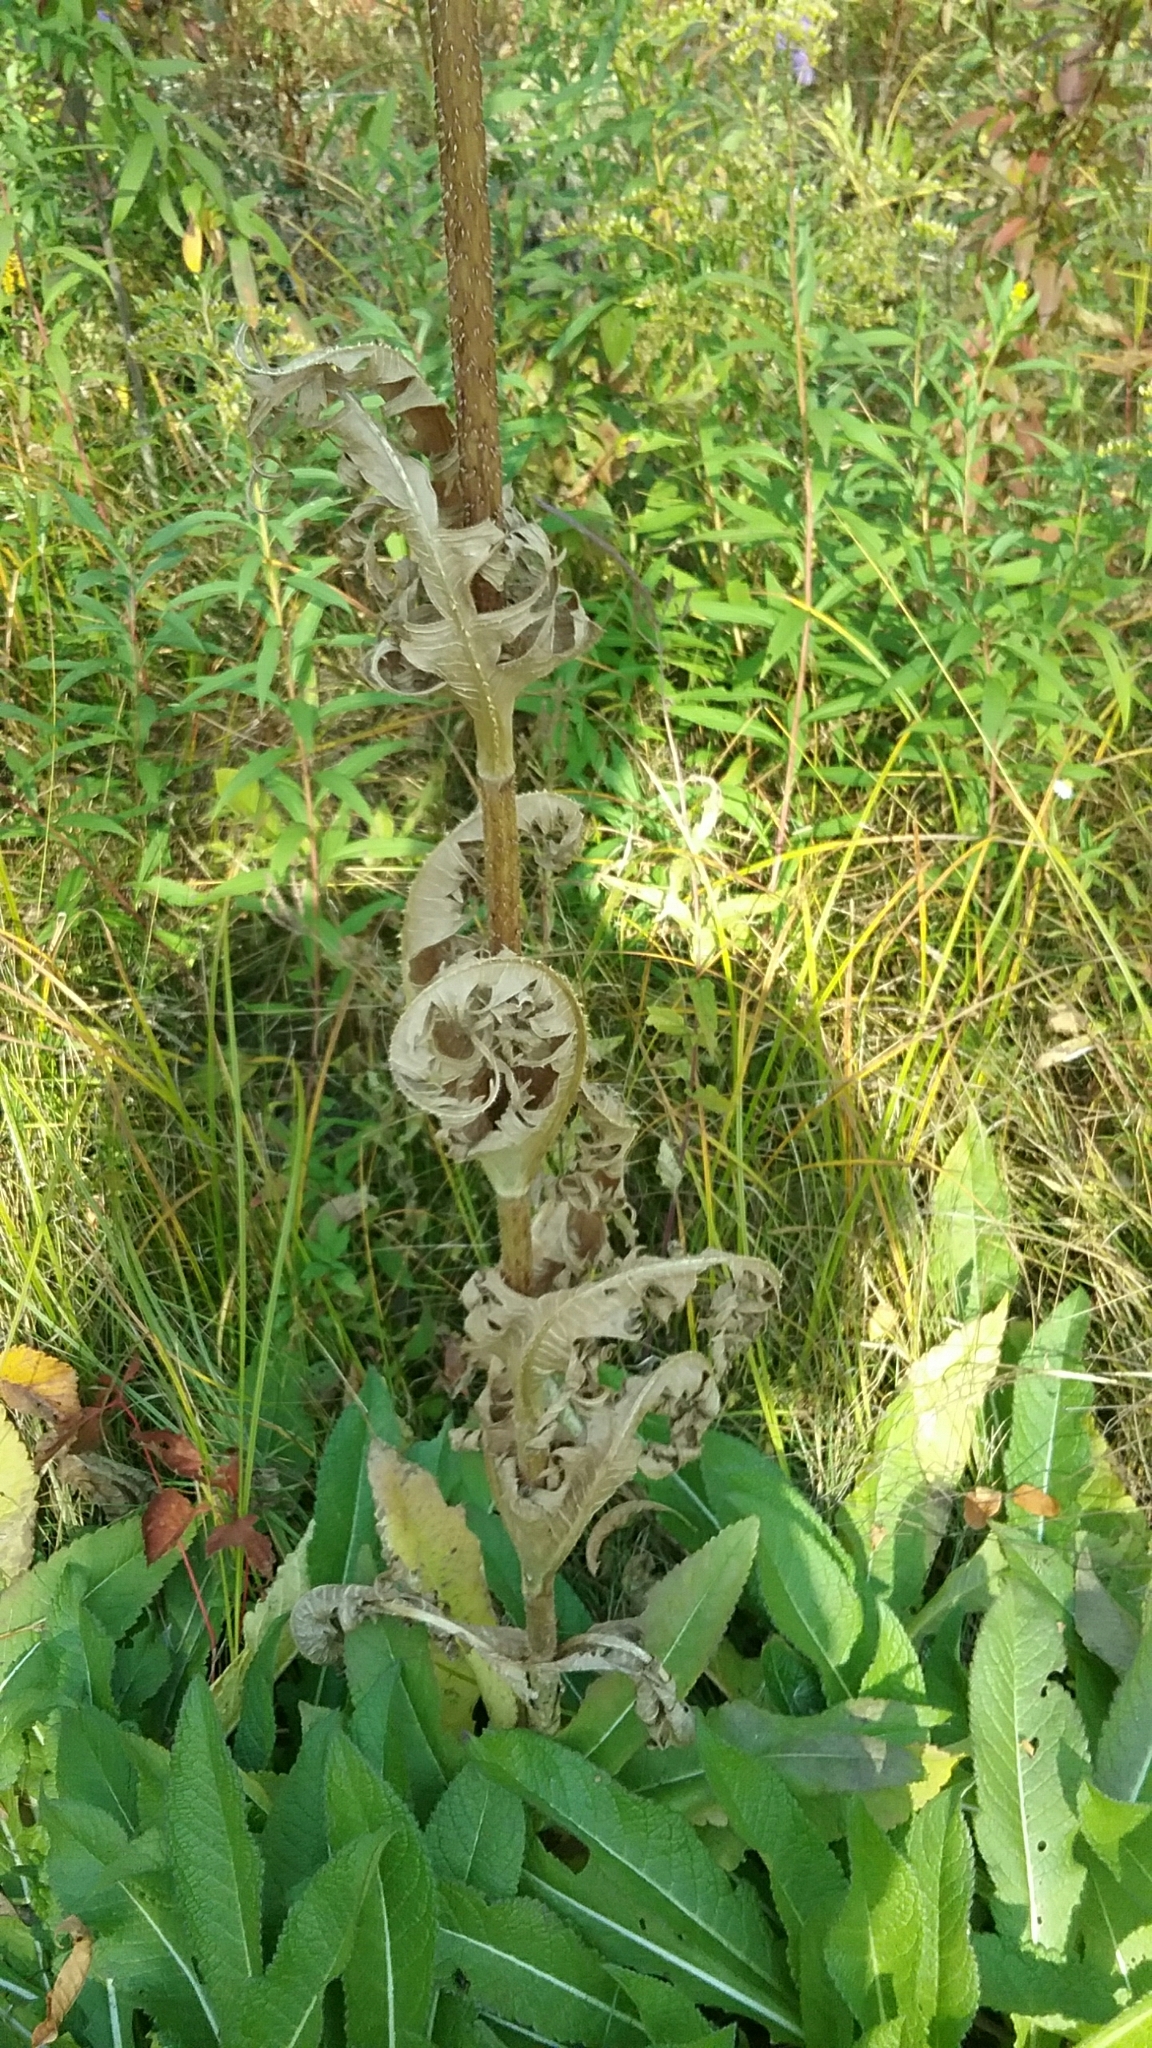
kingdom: Plantae
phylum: Tracheophyta
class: Magnoliopsida
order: Dipsacales
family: Caprifoliaceae
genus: Dipsacus
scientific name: Dipsacus laciniatus
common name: Cut-leaved teasel
